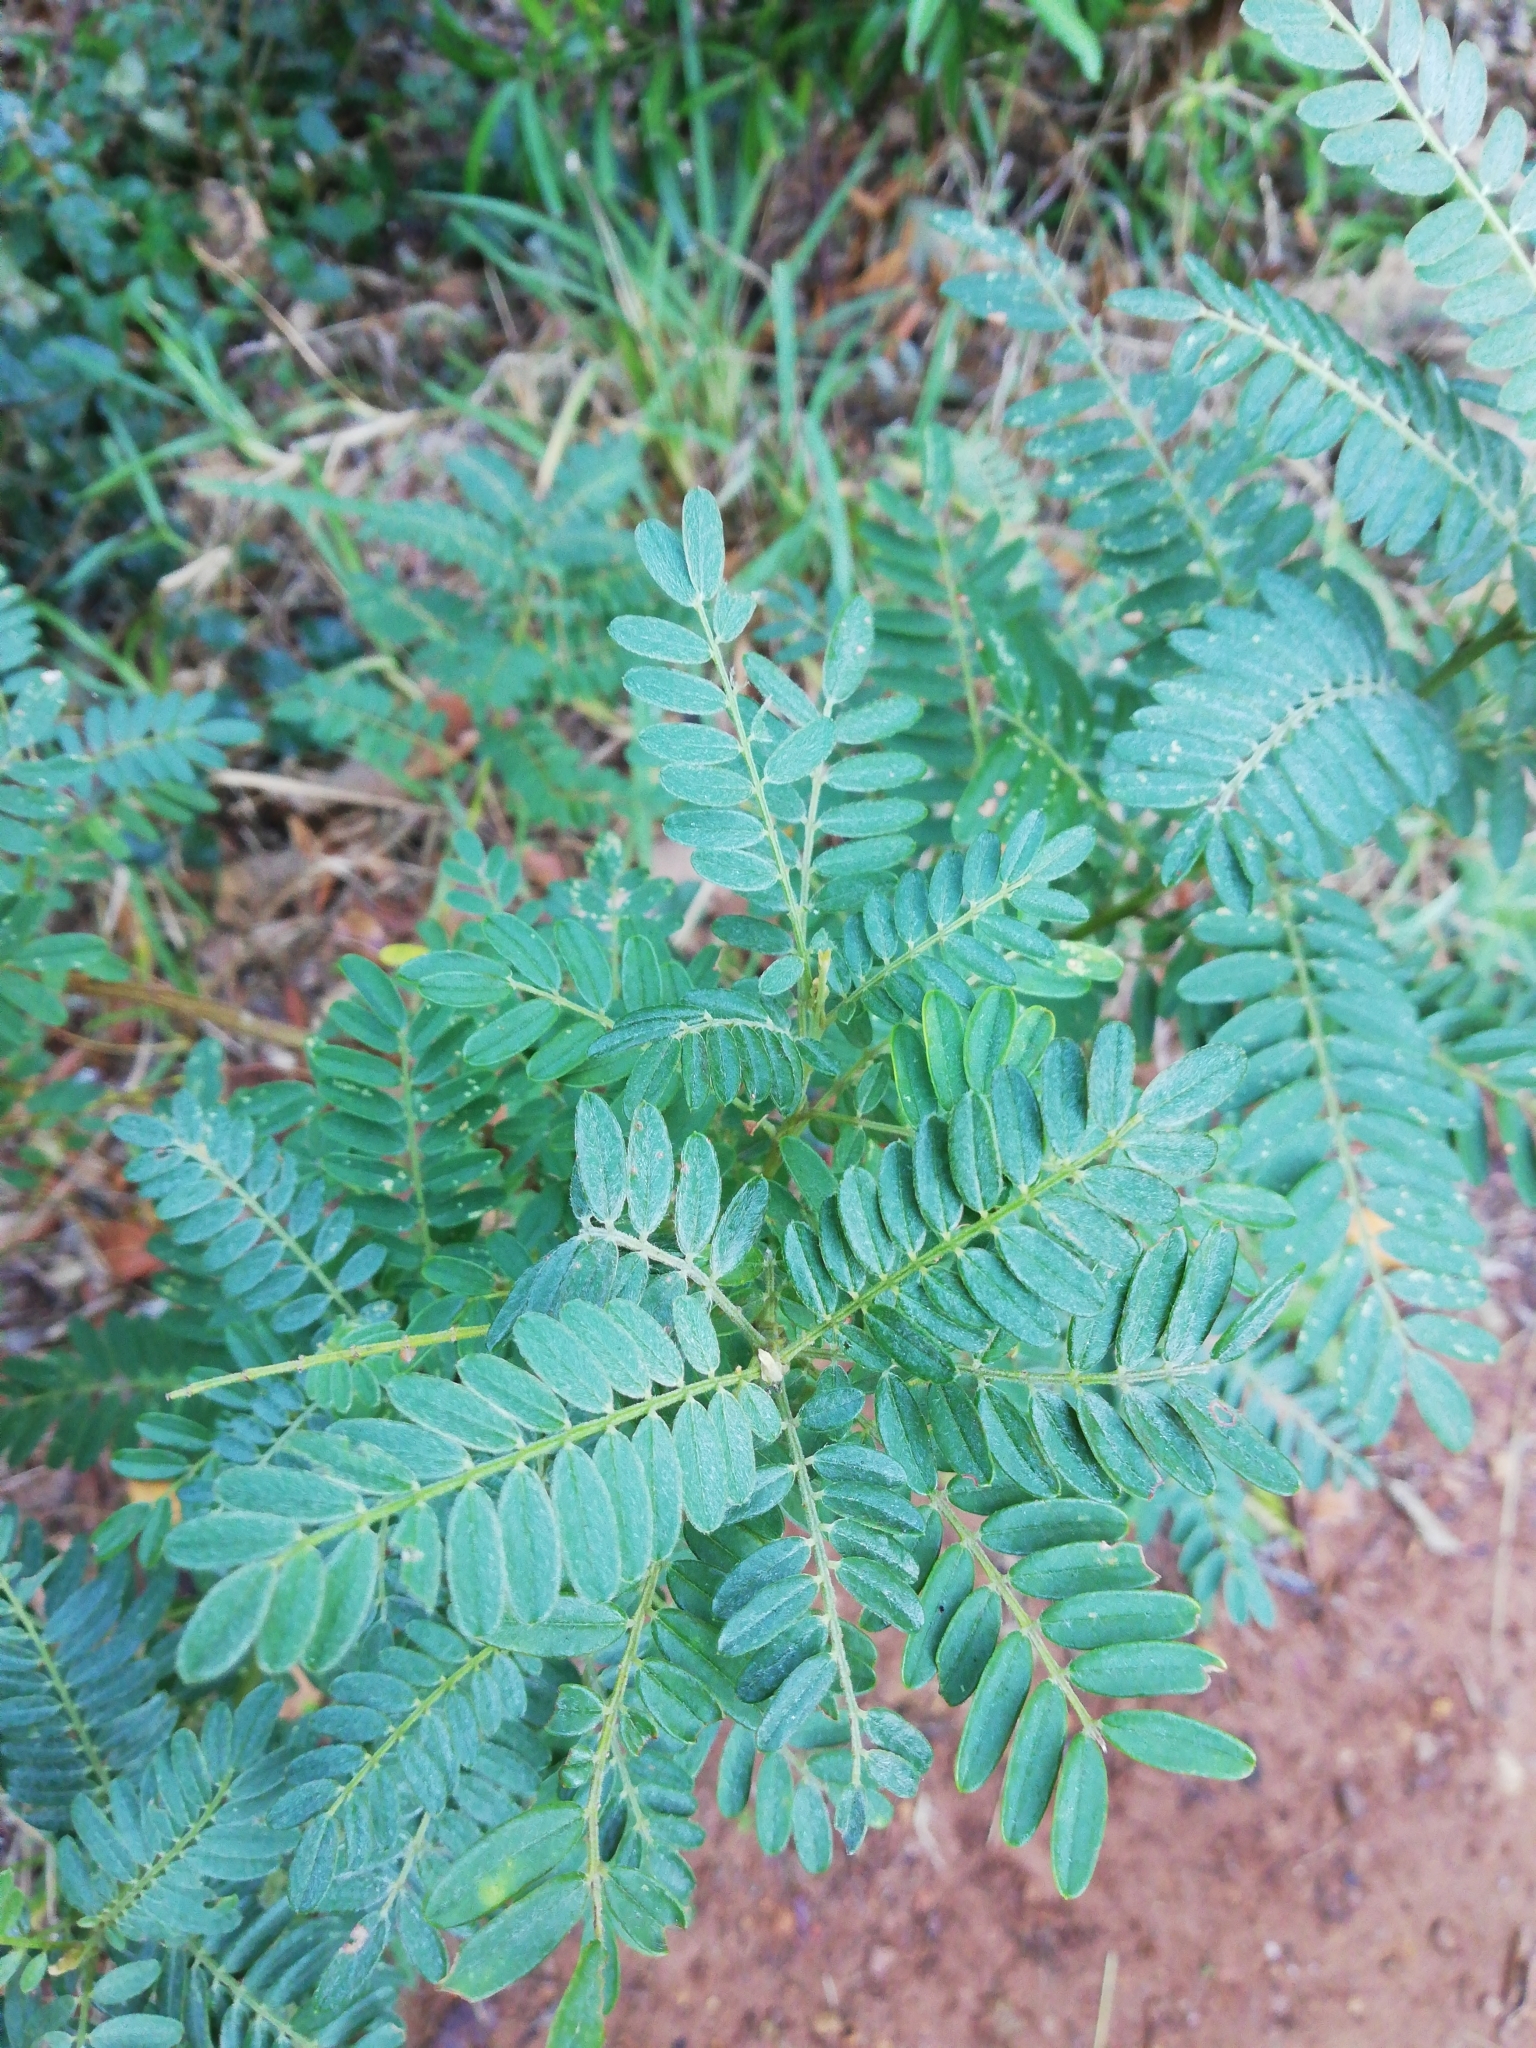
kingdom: Plantae
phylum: Tracheophyta
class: Magnoliopsida
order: Fabales
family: Fabaceae
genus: Sesbania
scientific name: Sesbania punicea
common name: Rattlebox
